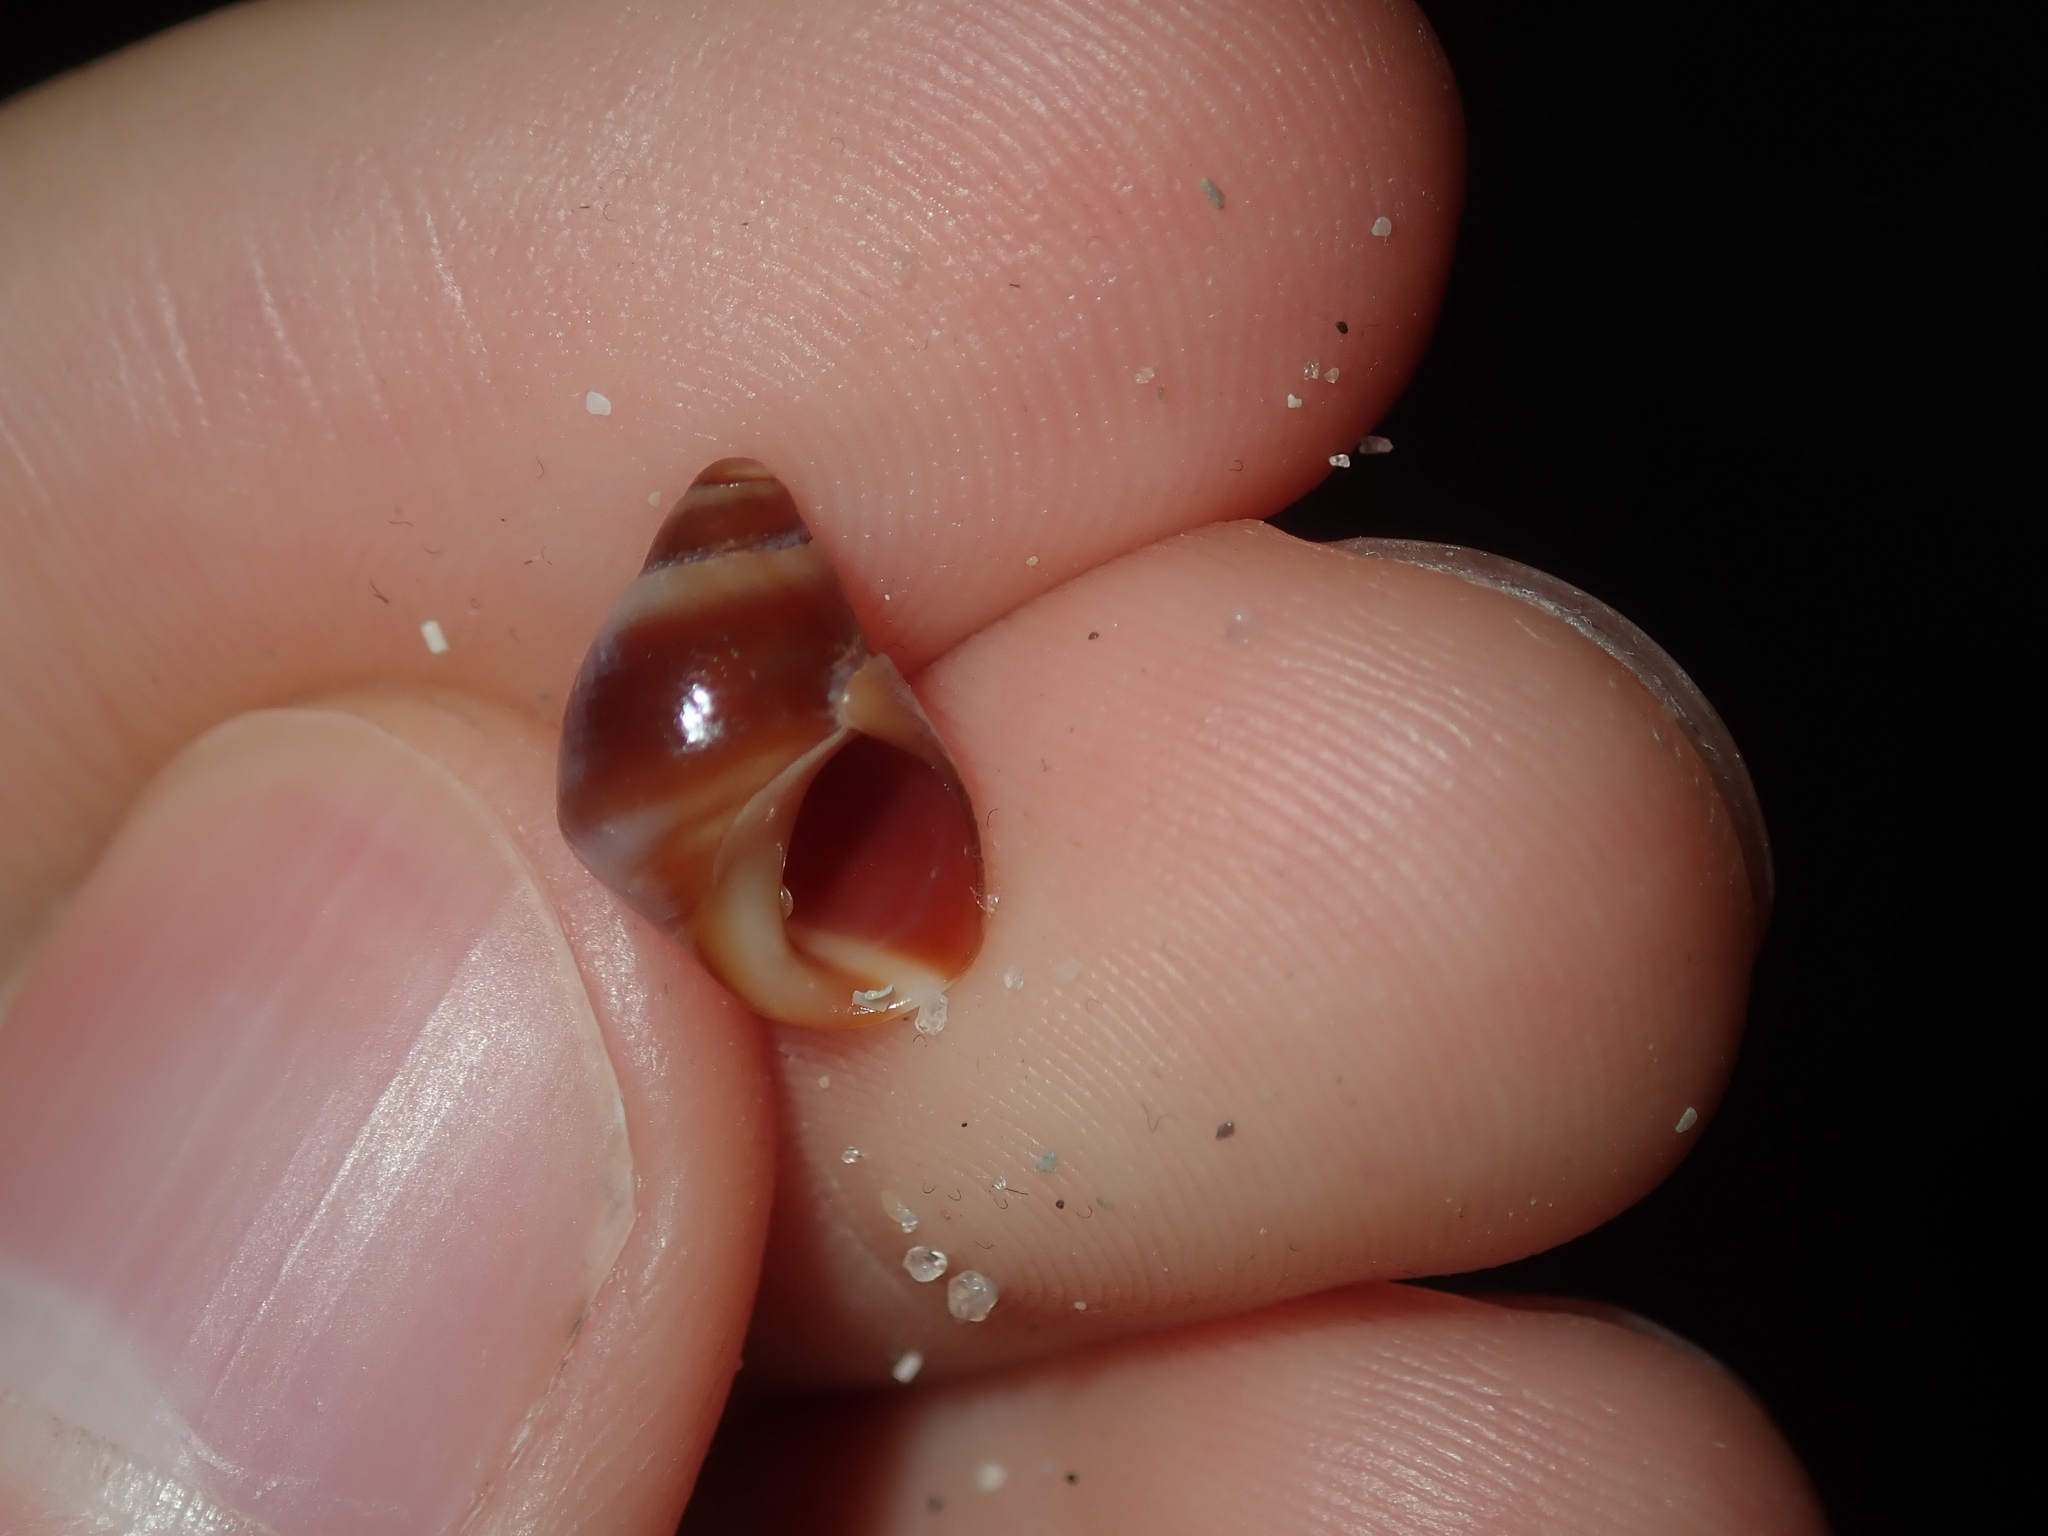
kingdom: Animalia
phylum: Mollusca
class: Gastropoda
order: Littorinimorpha
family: Littorinidae
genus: Austrolittorina
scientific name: Austrolittorina unifasciata
